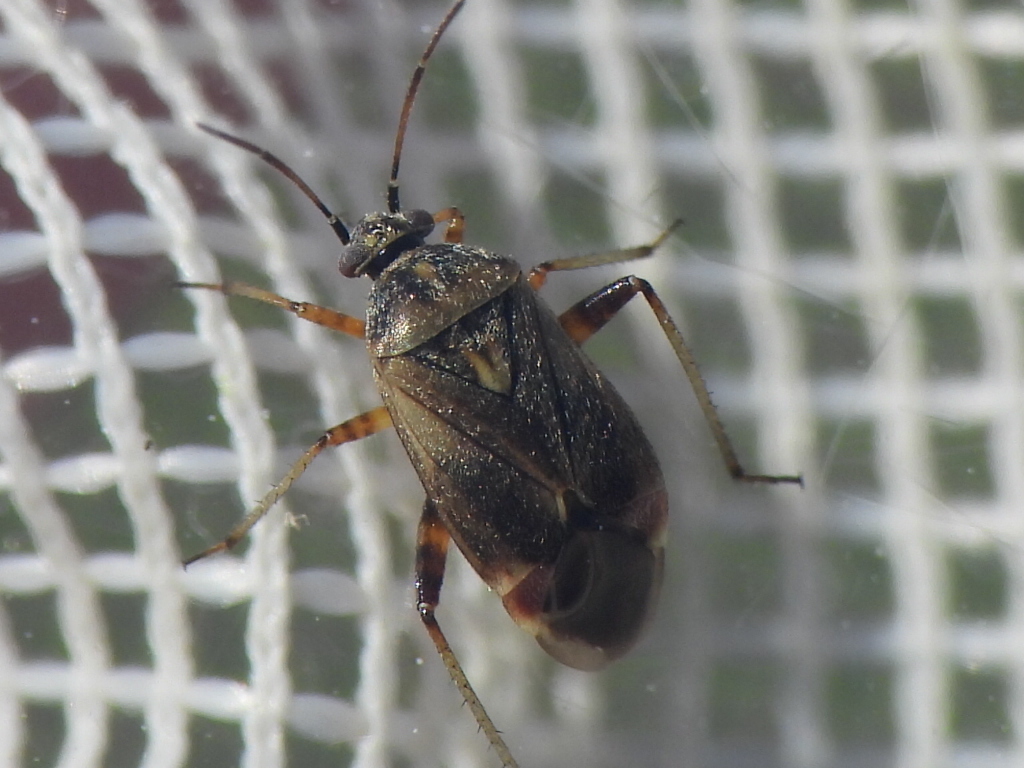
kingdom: Animalia
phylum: Arthropoda
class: Insecta
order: Hemiptera
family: Miridae
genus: Polymerus
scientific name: Polymerus basalis
